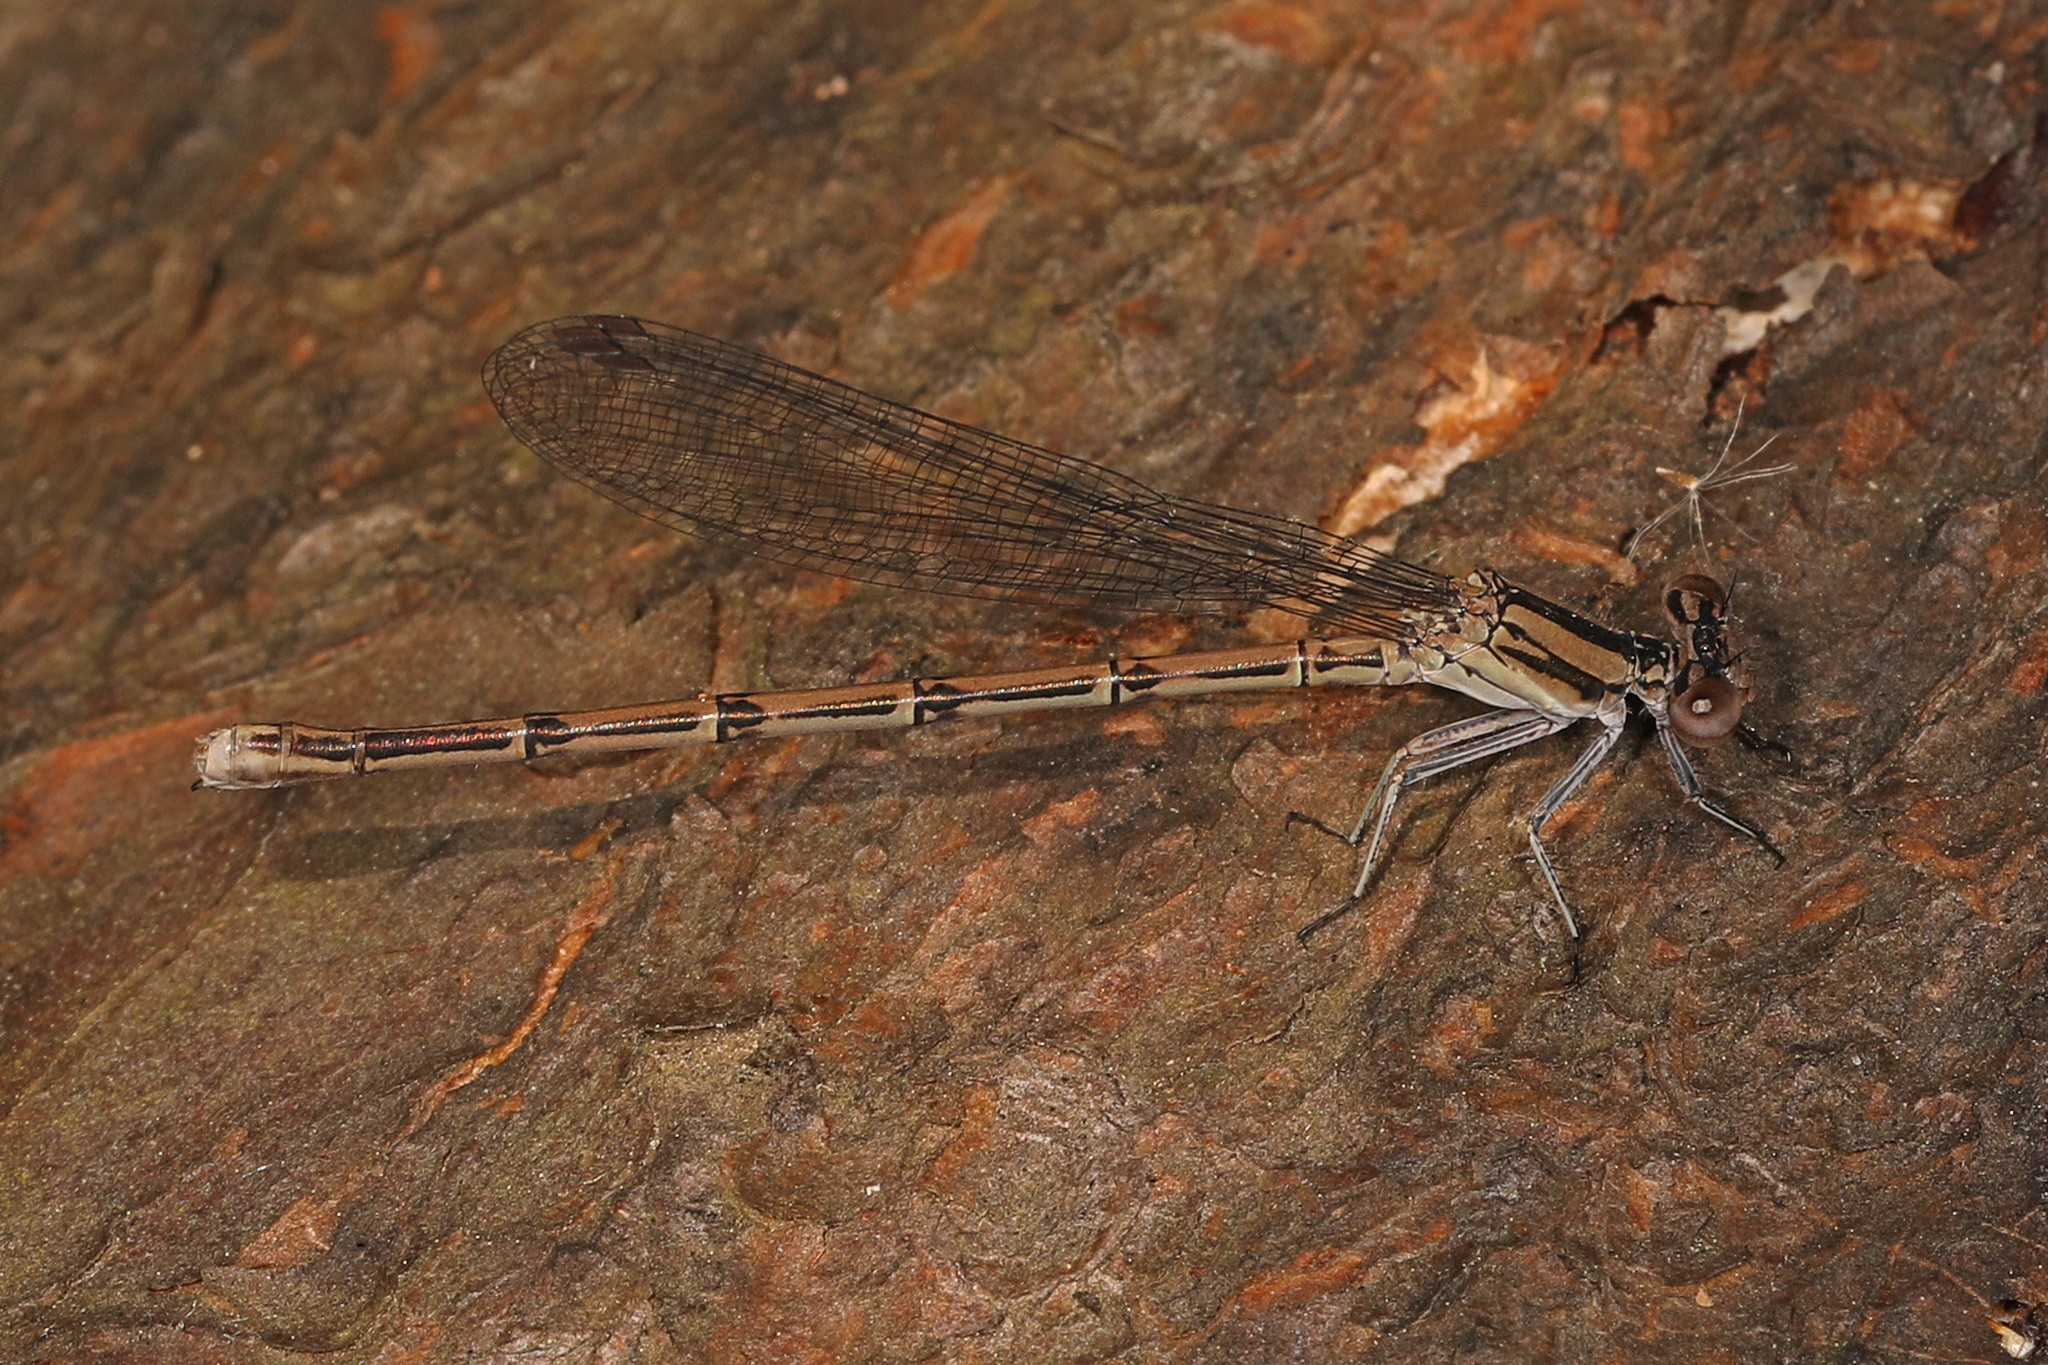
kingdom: Animalia
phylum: Arthropoda
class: Insecta
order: Odonata
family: Coenagrionidae
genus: Argia
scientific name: Argia fumipennis
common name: Variable dancer
